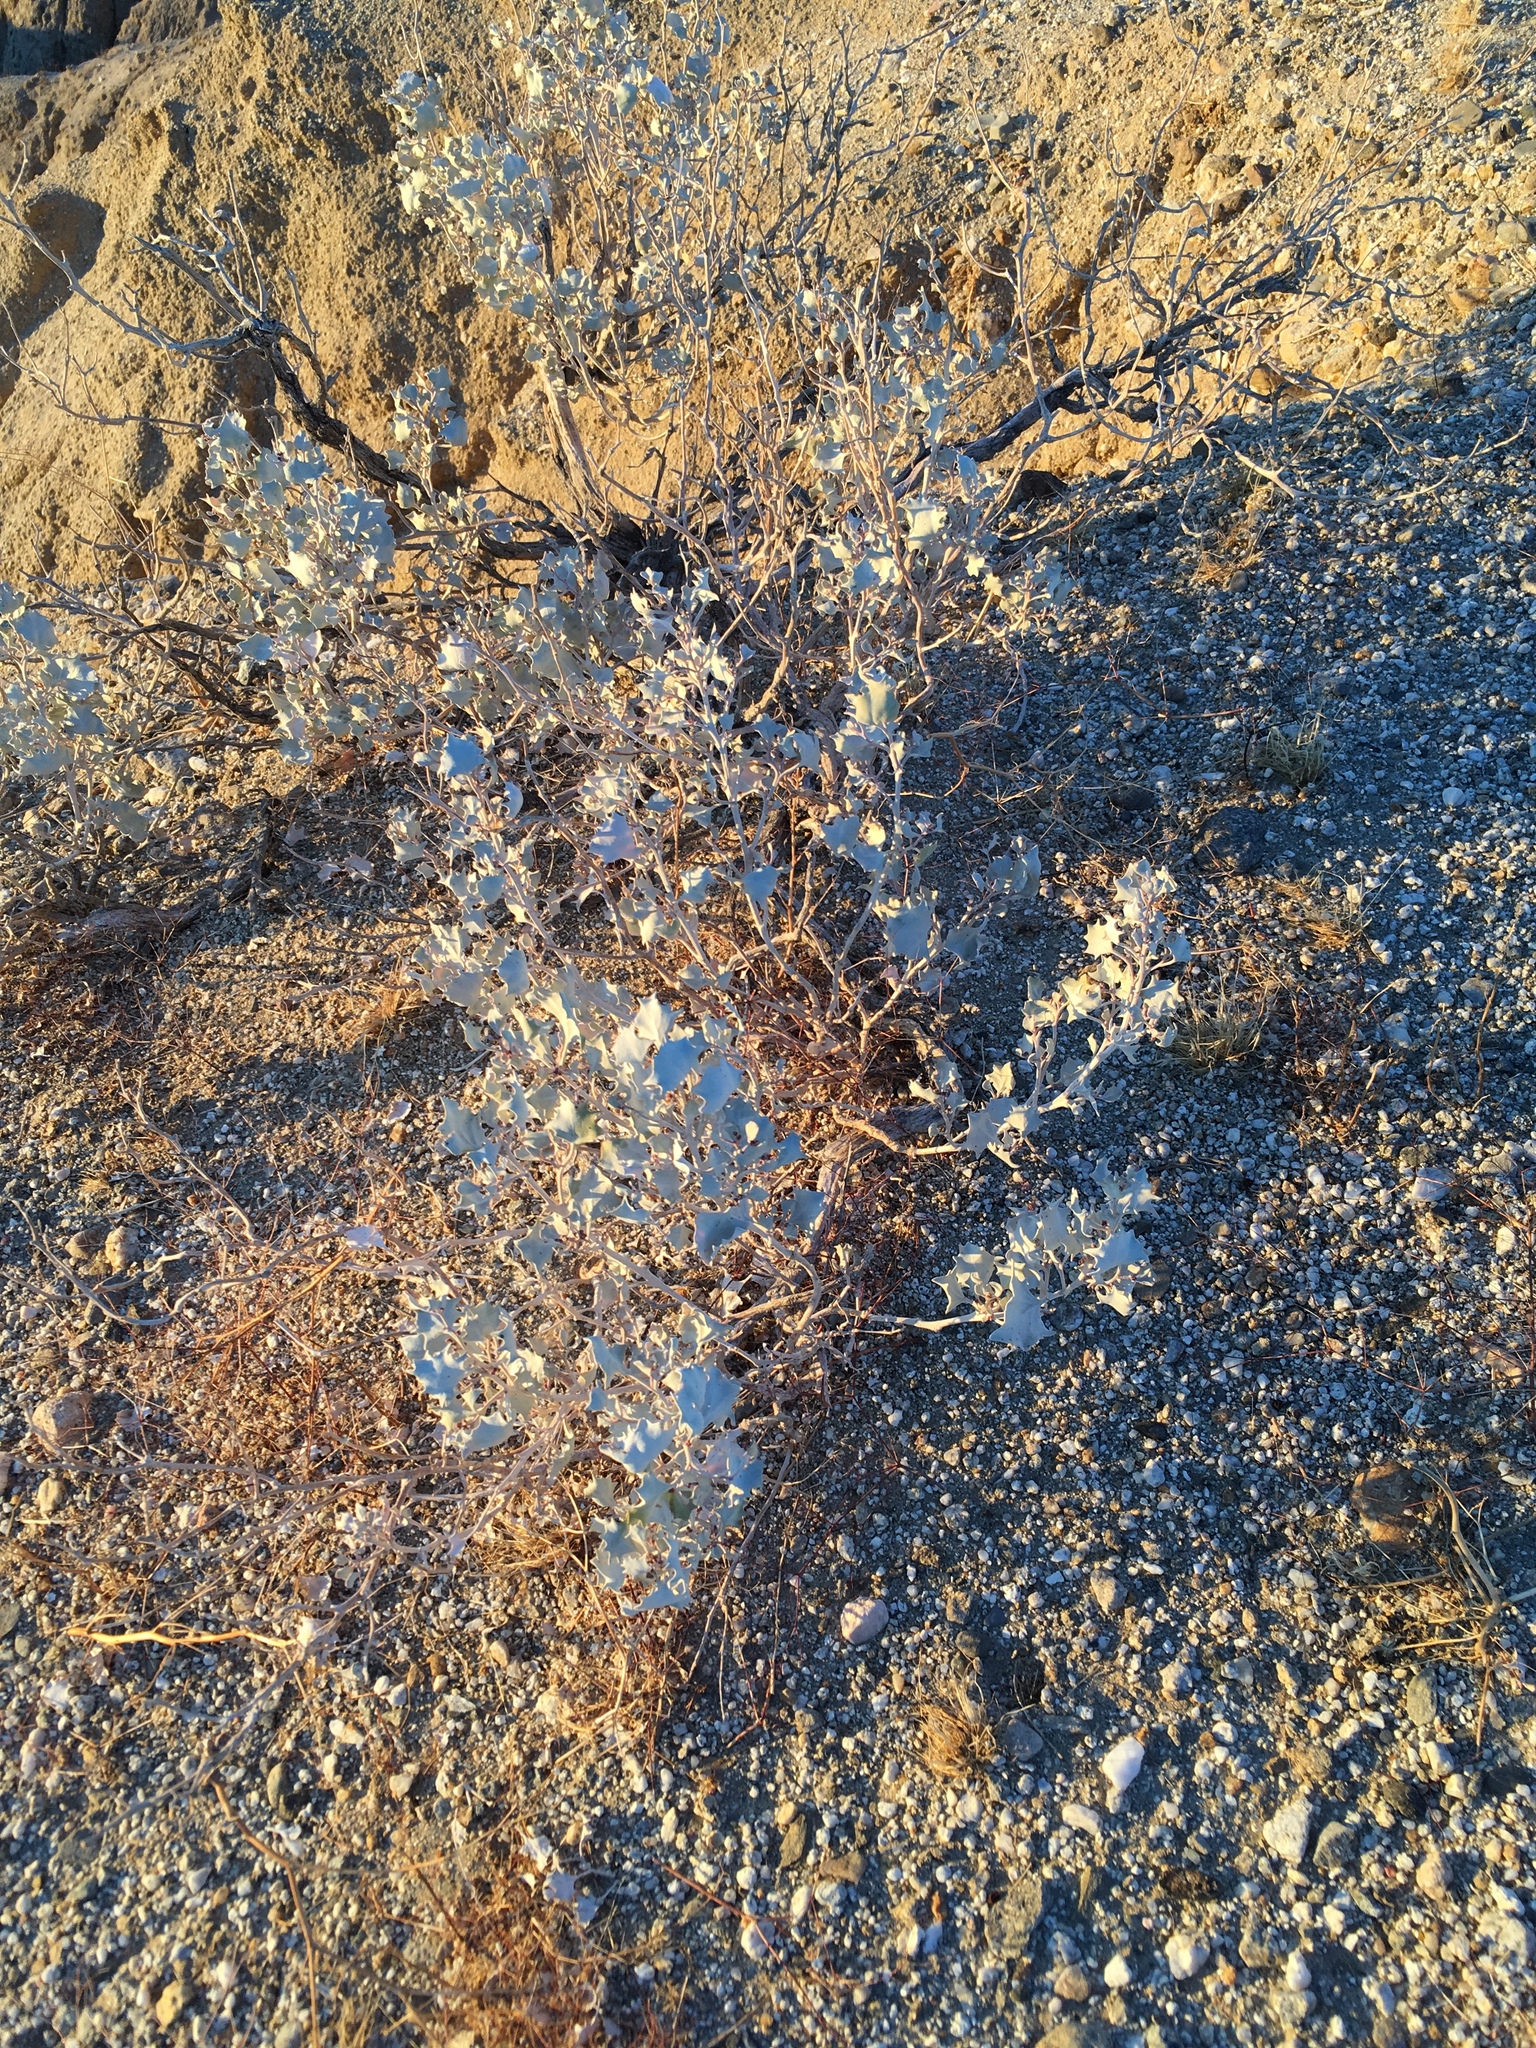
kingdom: Plantae
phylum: Tracheophyta
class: Magnoliopsida
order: Caryophyllales
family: Amaranthaceae
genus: Atriplex
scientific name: Atriplex hymenelytra
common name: Desert-holly
